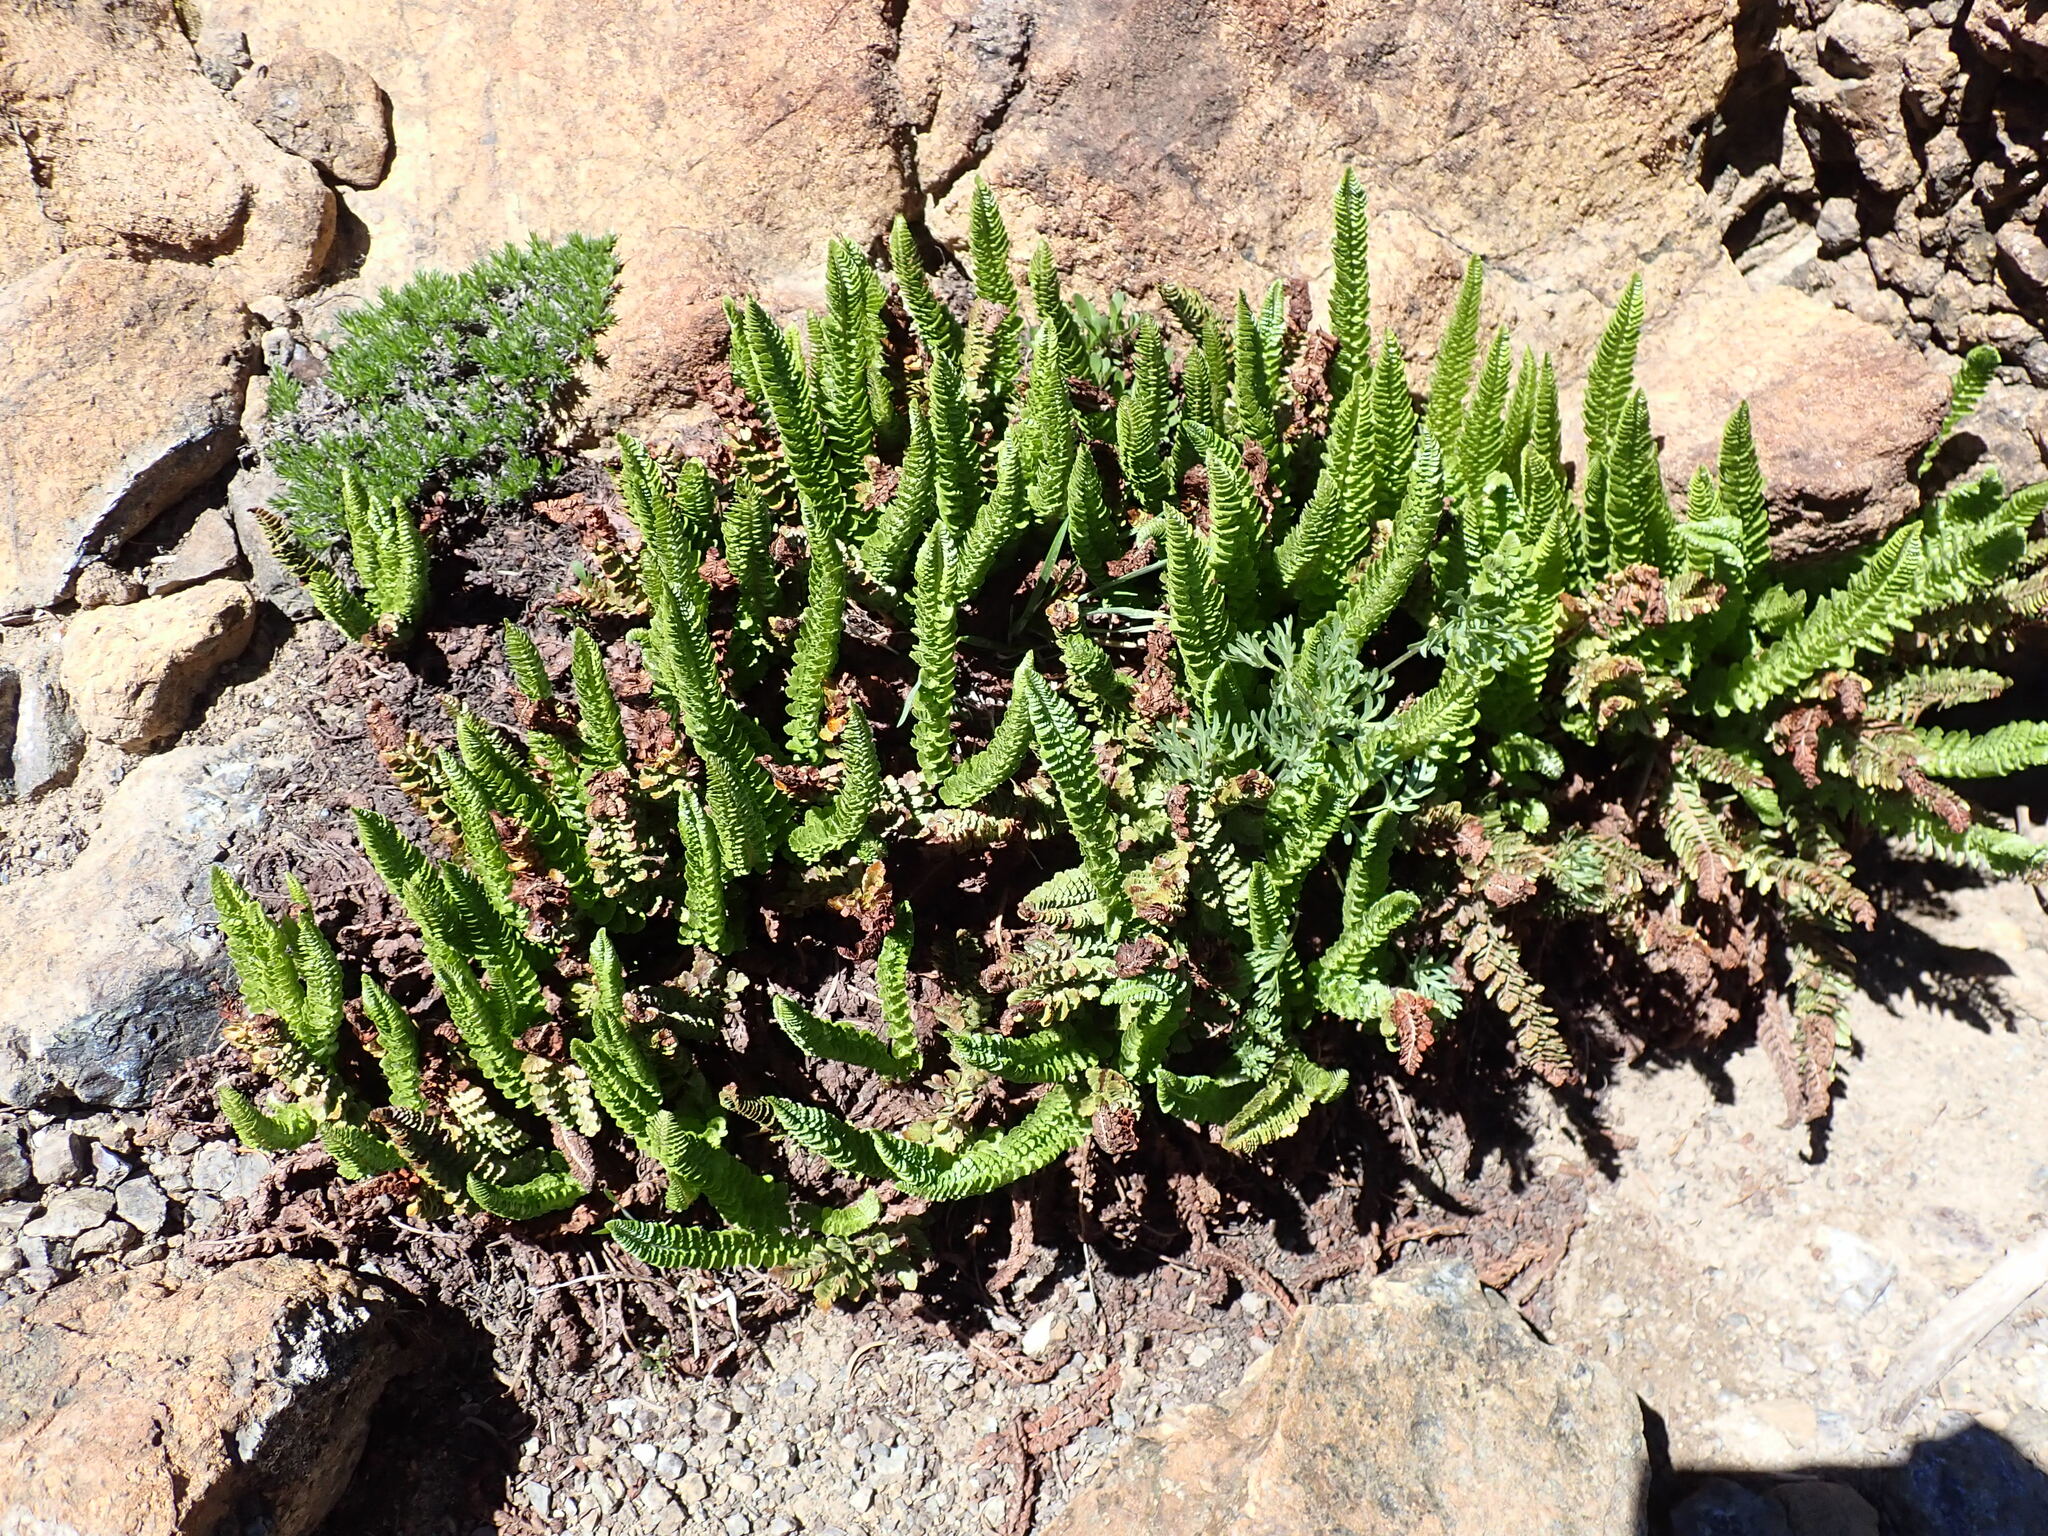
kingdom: Plantae
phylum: Tracheophyta
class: Polypodiopsida
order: Polypodiales
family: Dryopteridaceae
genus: Polystichum
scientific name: Polystichum lemmonii
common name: Lemmon's holly fern
